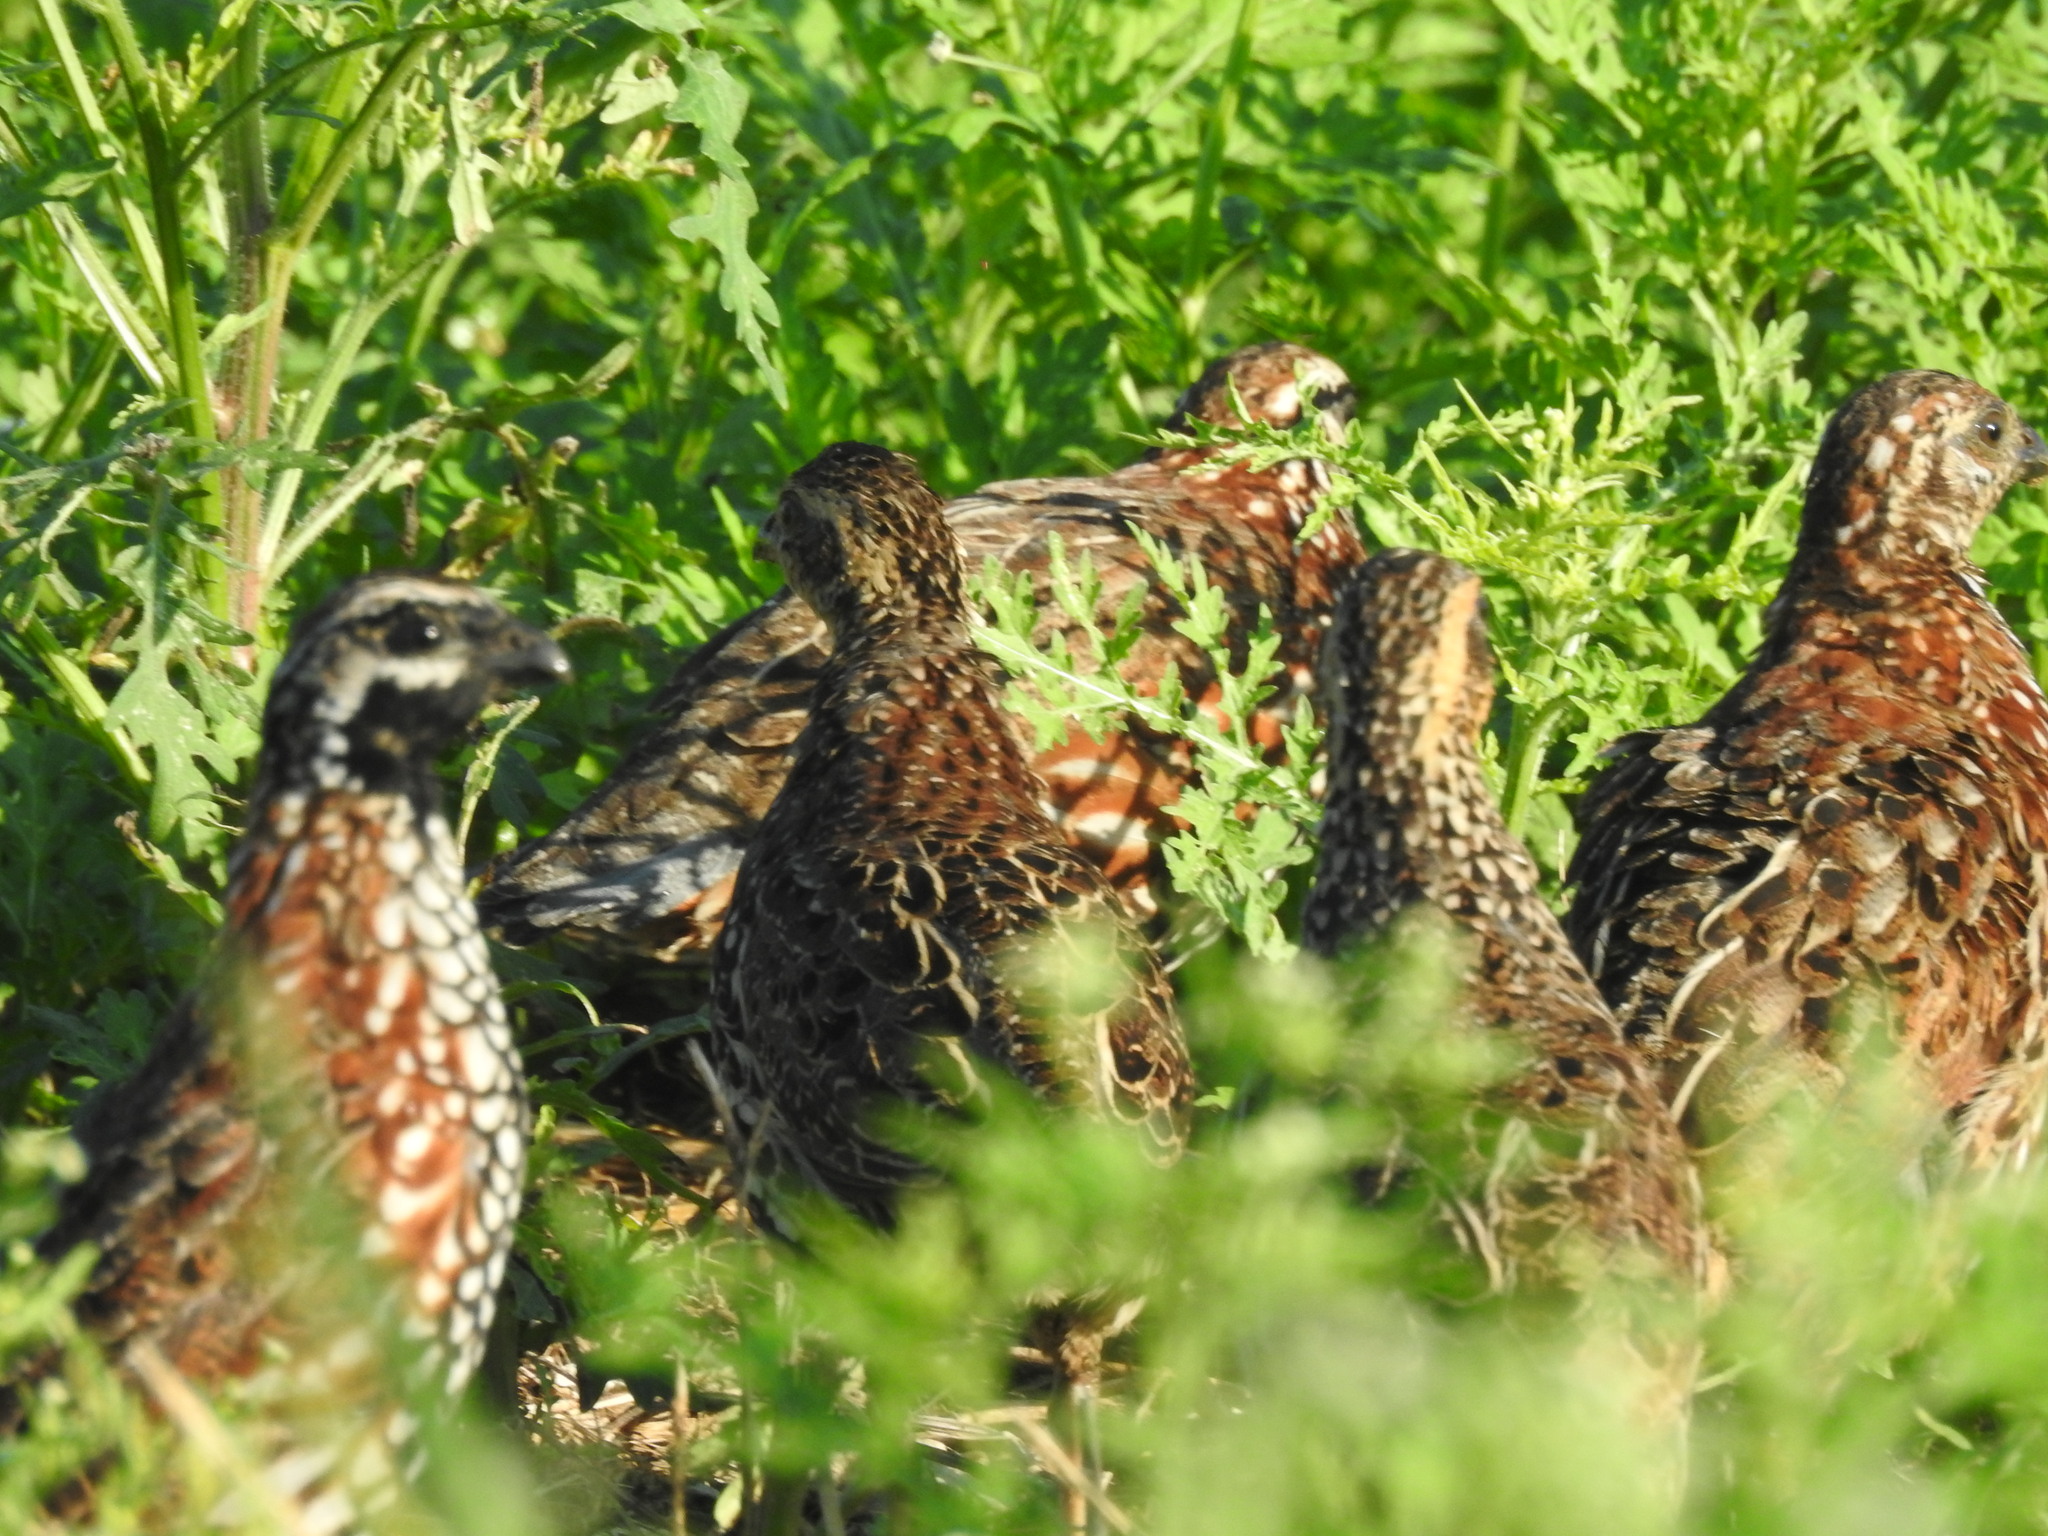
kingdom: Animalia
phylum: Chordata
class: Aves
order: Galliformes
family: Odontophoridae
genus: Colinus
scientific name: Colinus nigrogularis
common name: Yucatan bobwhite
